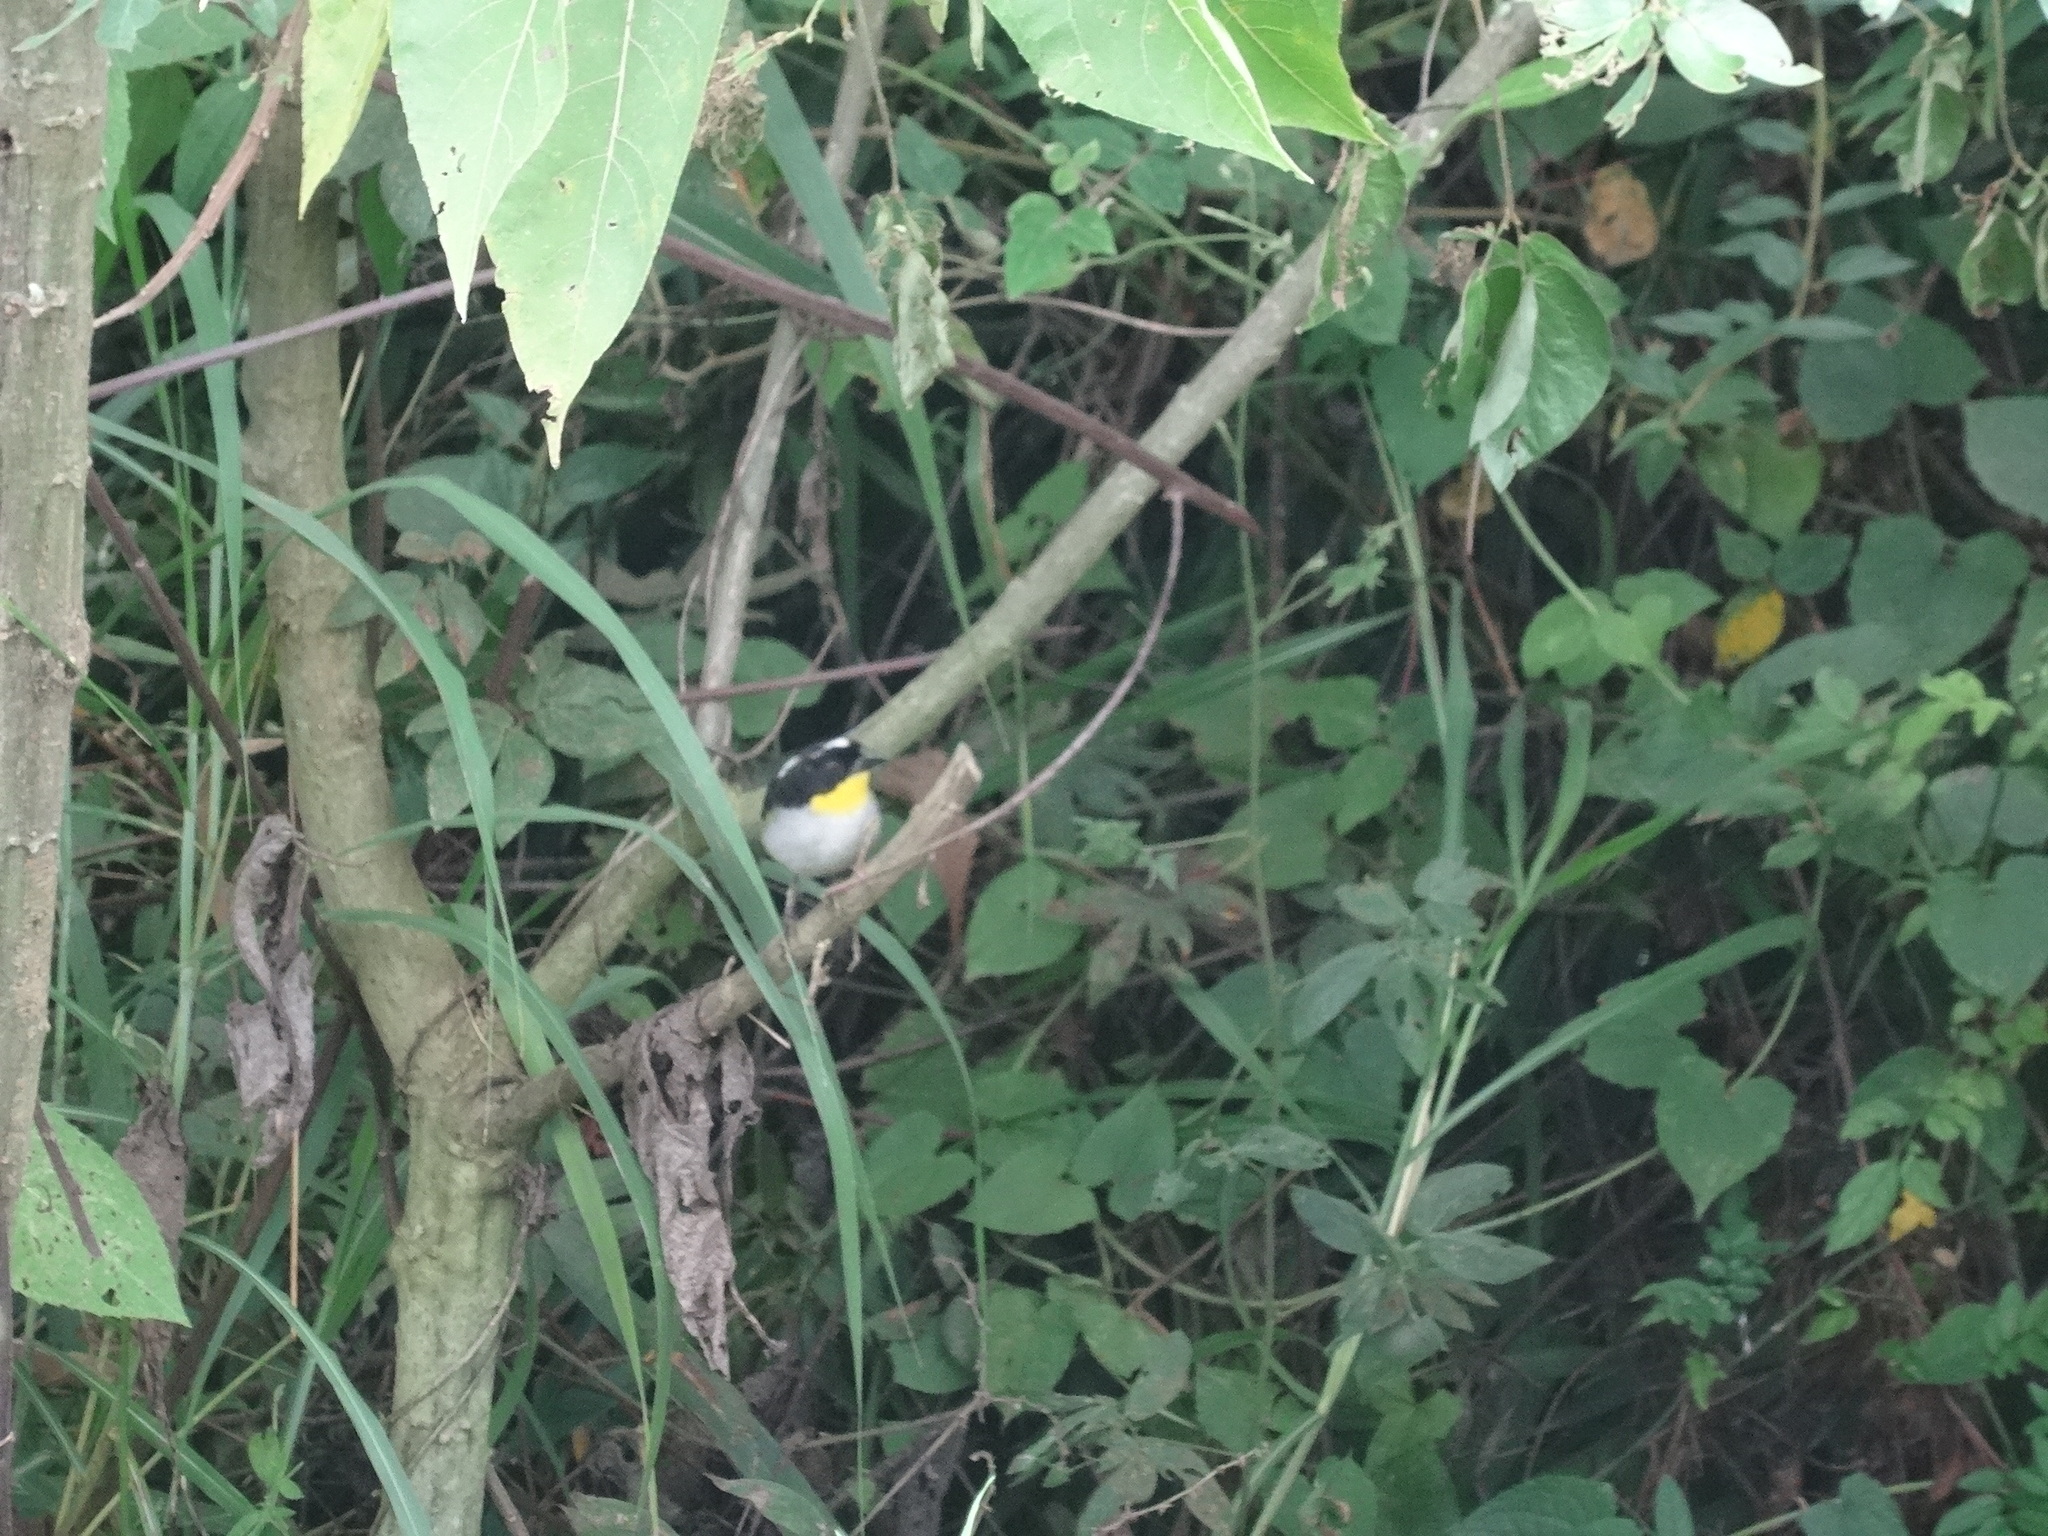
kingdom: Animalia
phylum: Chordata
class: Aves
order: Passeriformes
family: Passerellidae
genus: Atlapetes
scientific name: Atlapetes albinucha
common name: White-naped brush-finch
